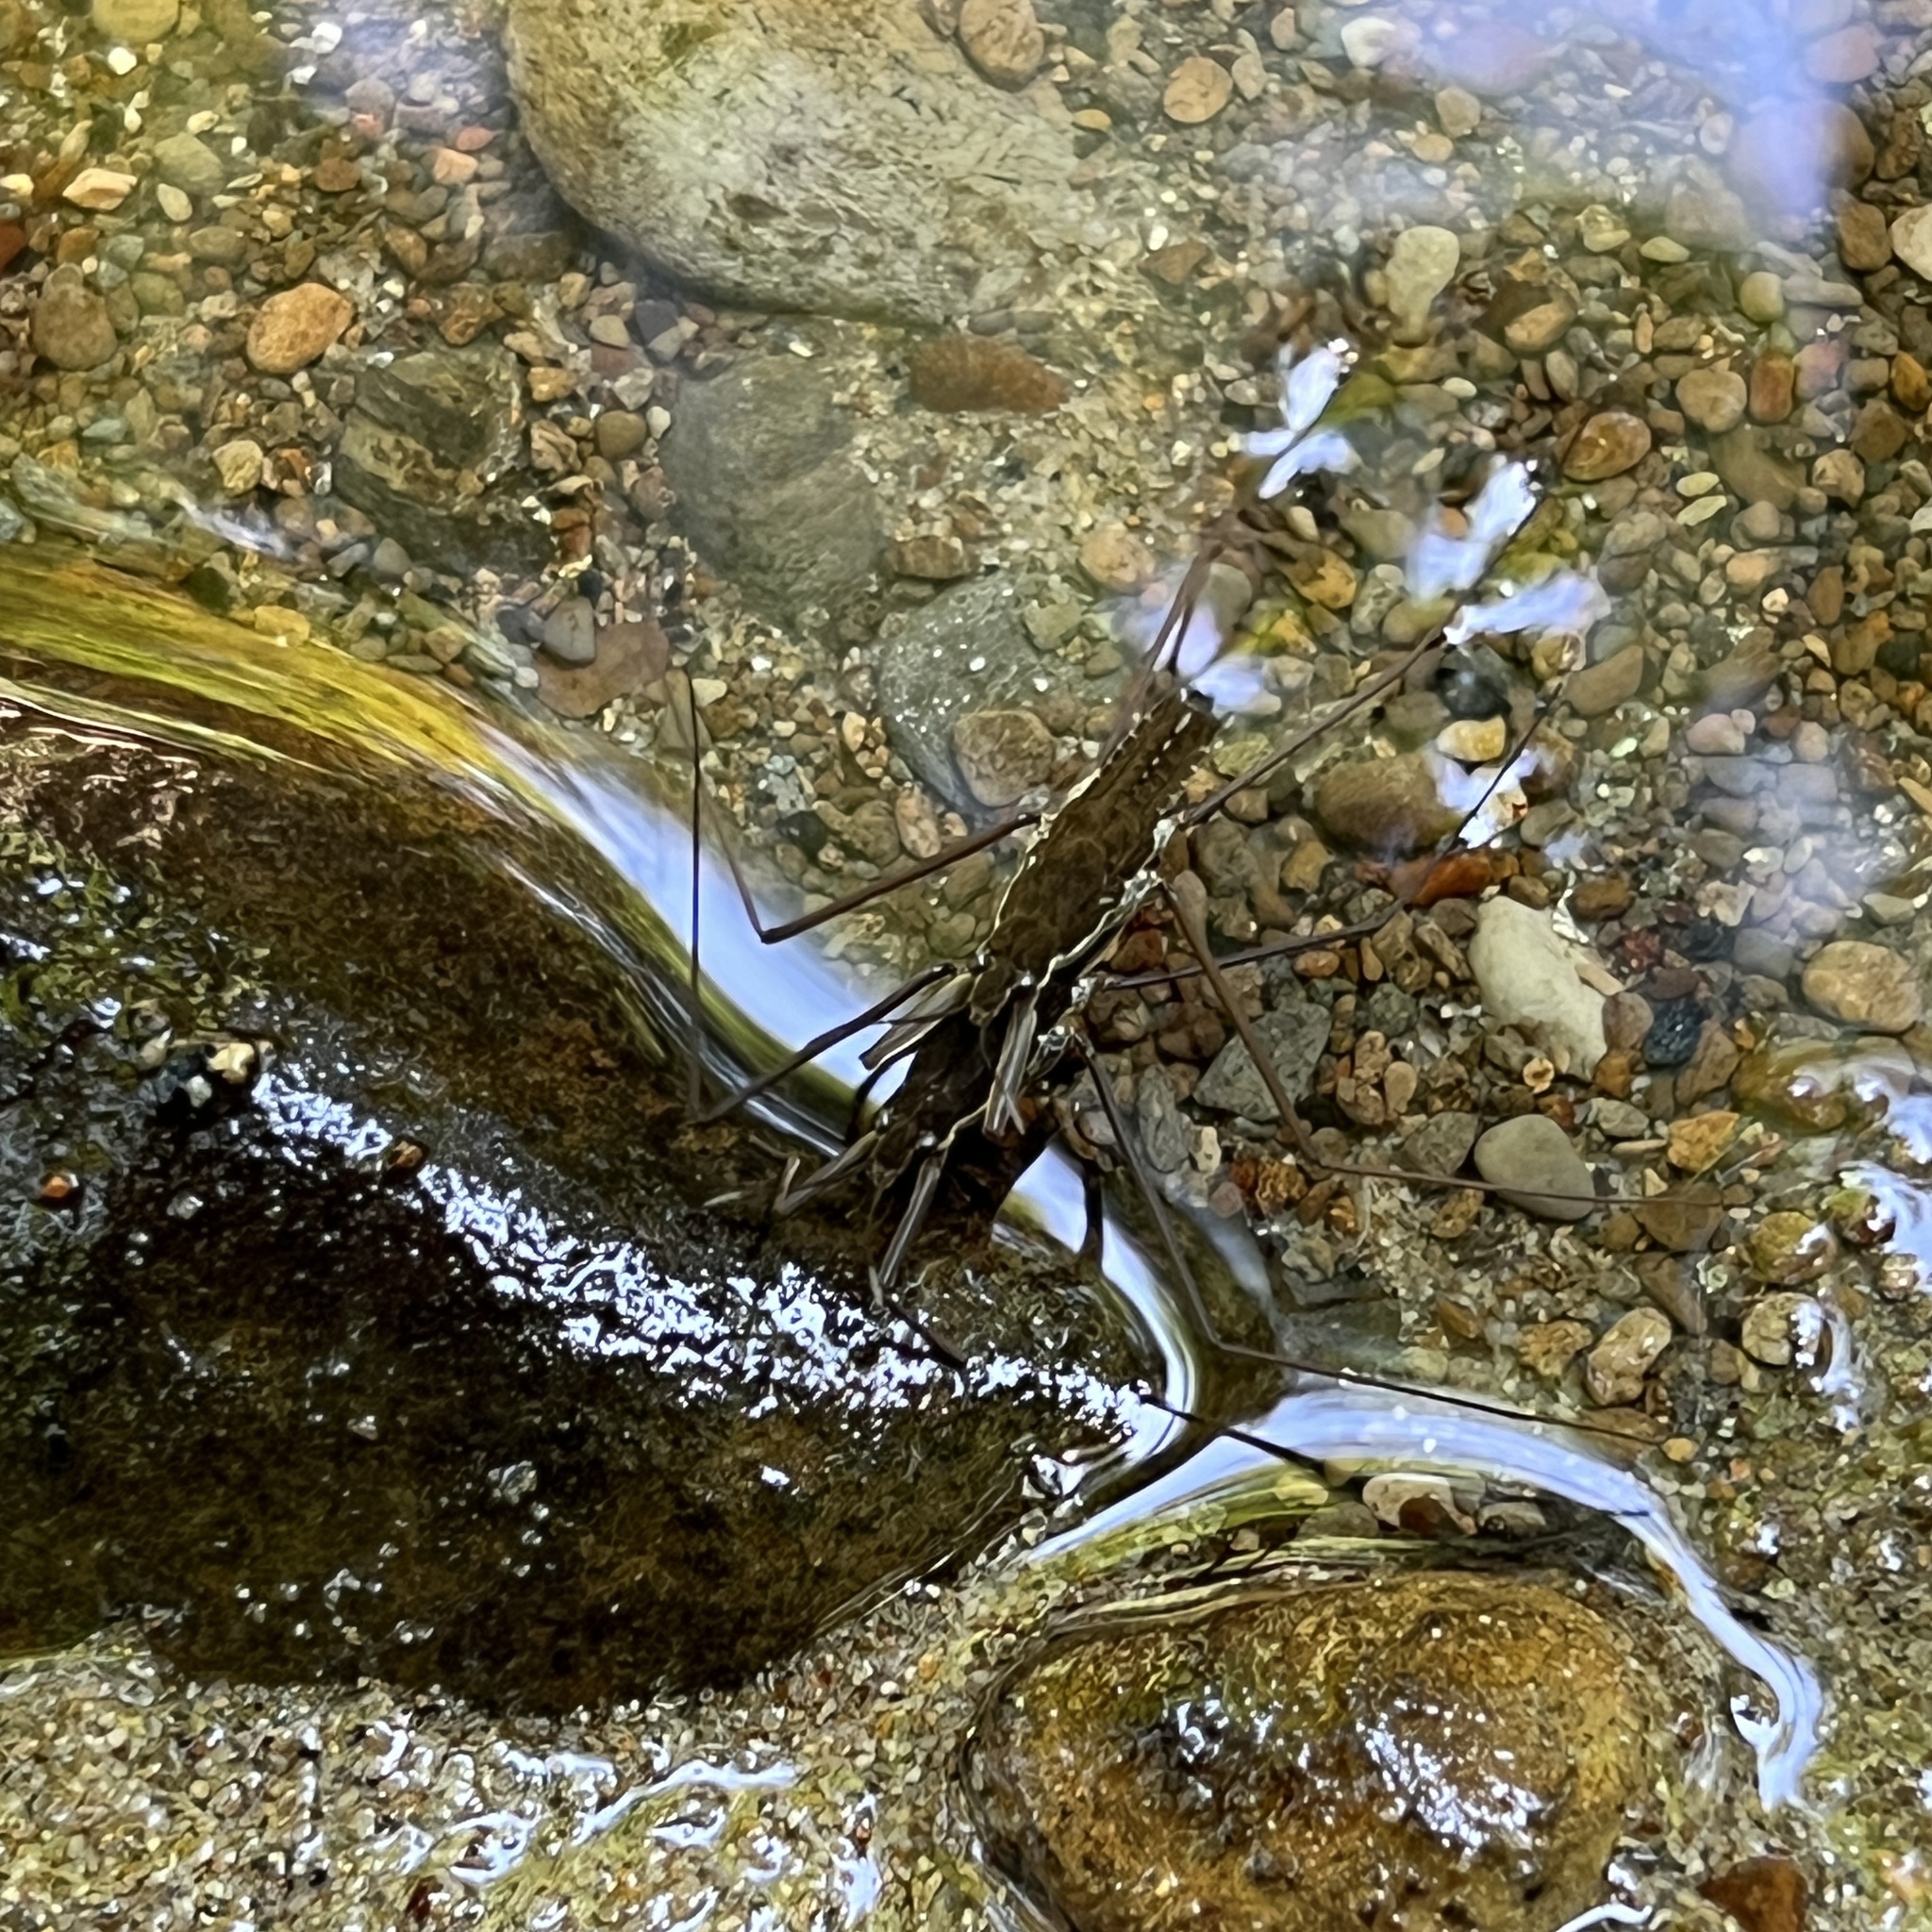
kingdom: Animalia
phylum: Arthropoda
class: Insecta
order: Hemiptera
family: Gerridae
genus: Aquarius
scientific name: Aquarius remigis
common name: Common water strider
